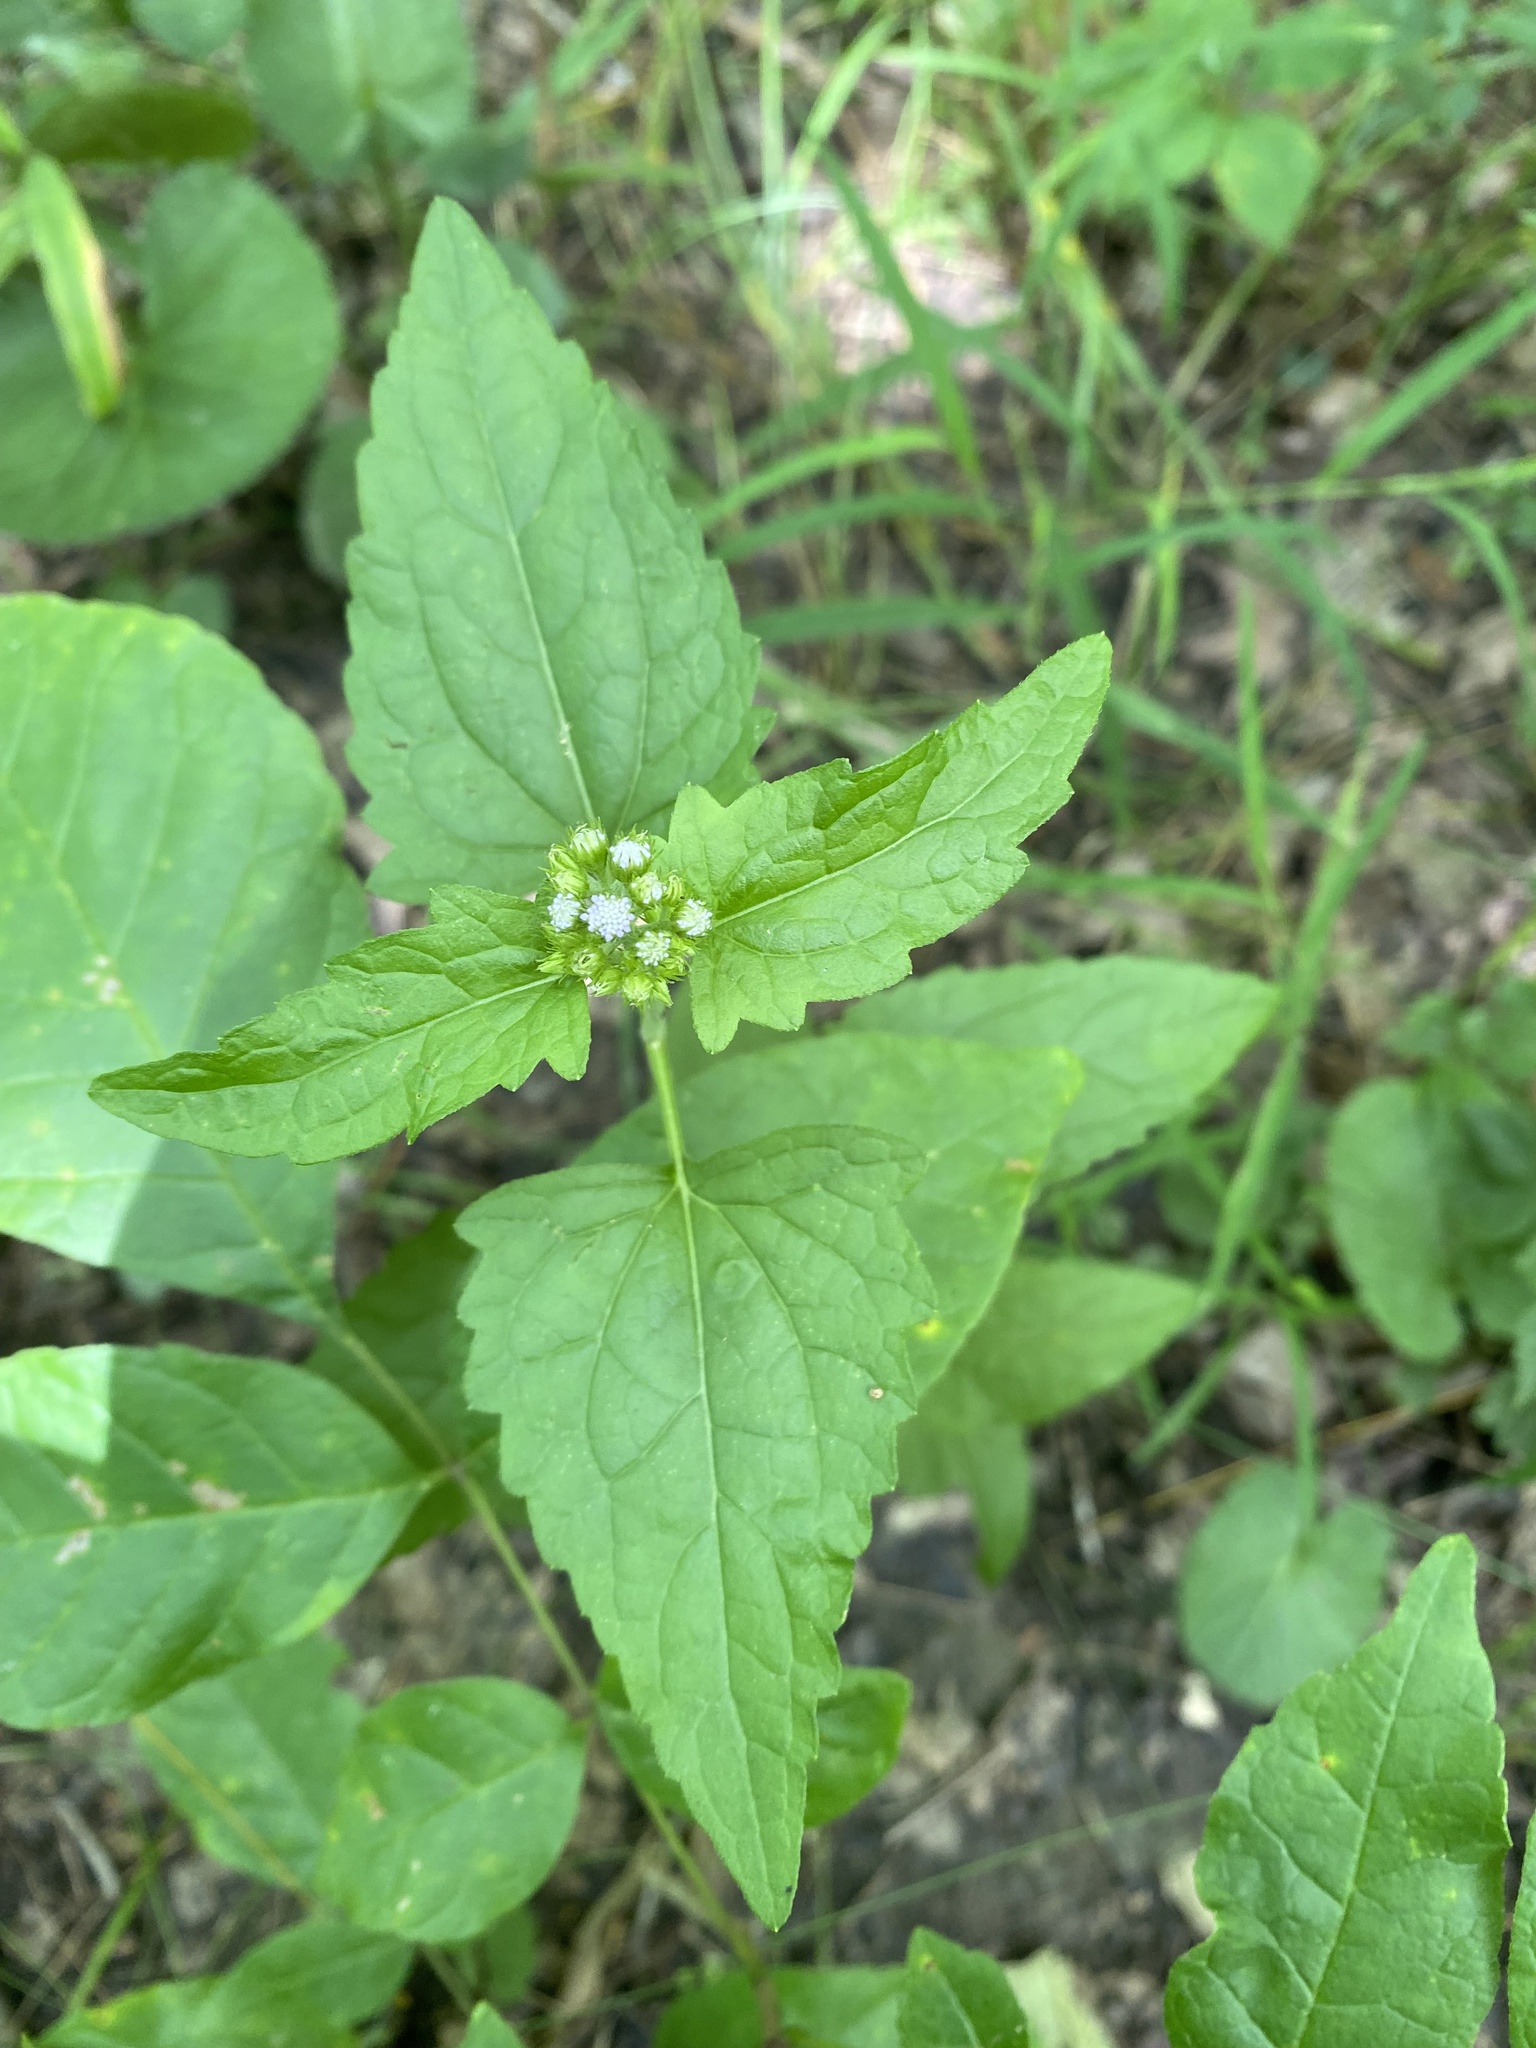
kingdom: Plantae
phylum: Tracheophyta
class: Magnoliopsida
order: Asterales
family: Asteraceae
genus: Conoclinium
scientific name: Conoclinium coelestinum
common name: Blue mistflower
